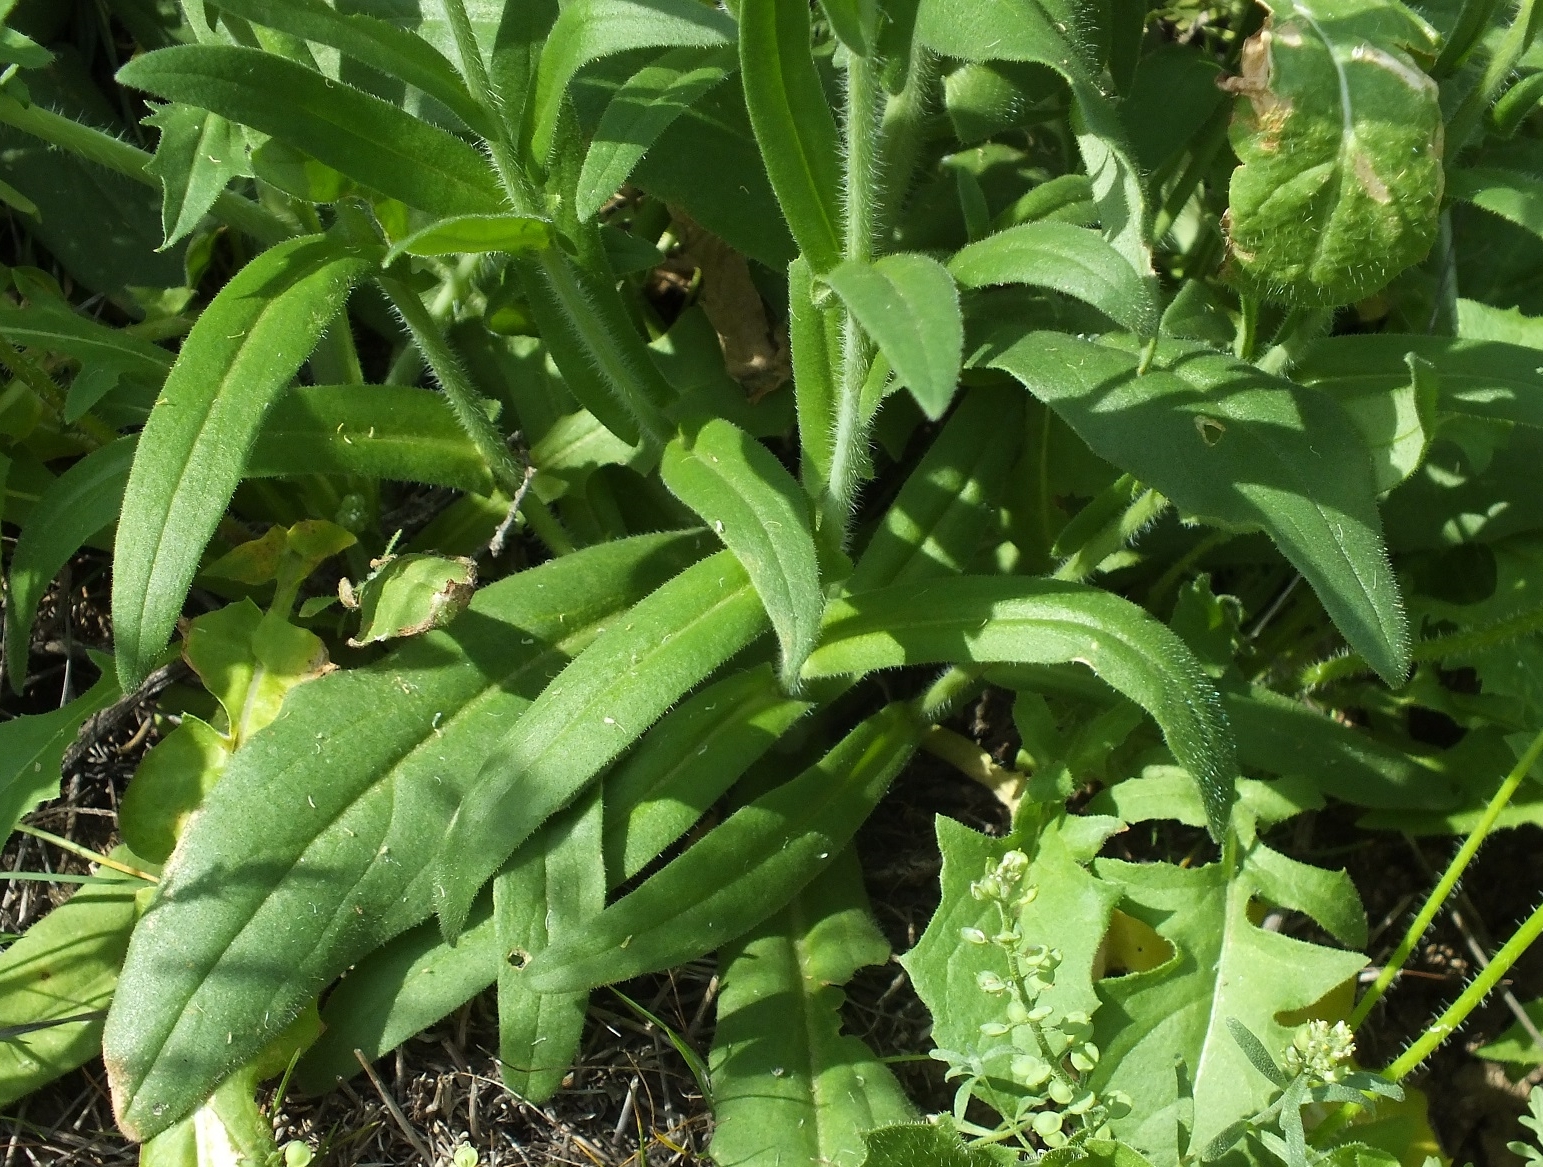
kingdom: Plantae
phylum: Tracheophyta
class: Magnoliopsida
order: Brassicales
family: Brassicaceae
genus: Camelina
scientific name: Camelina microcarpa
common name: Lesser gold-of-pleasure
